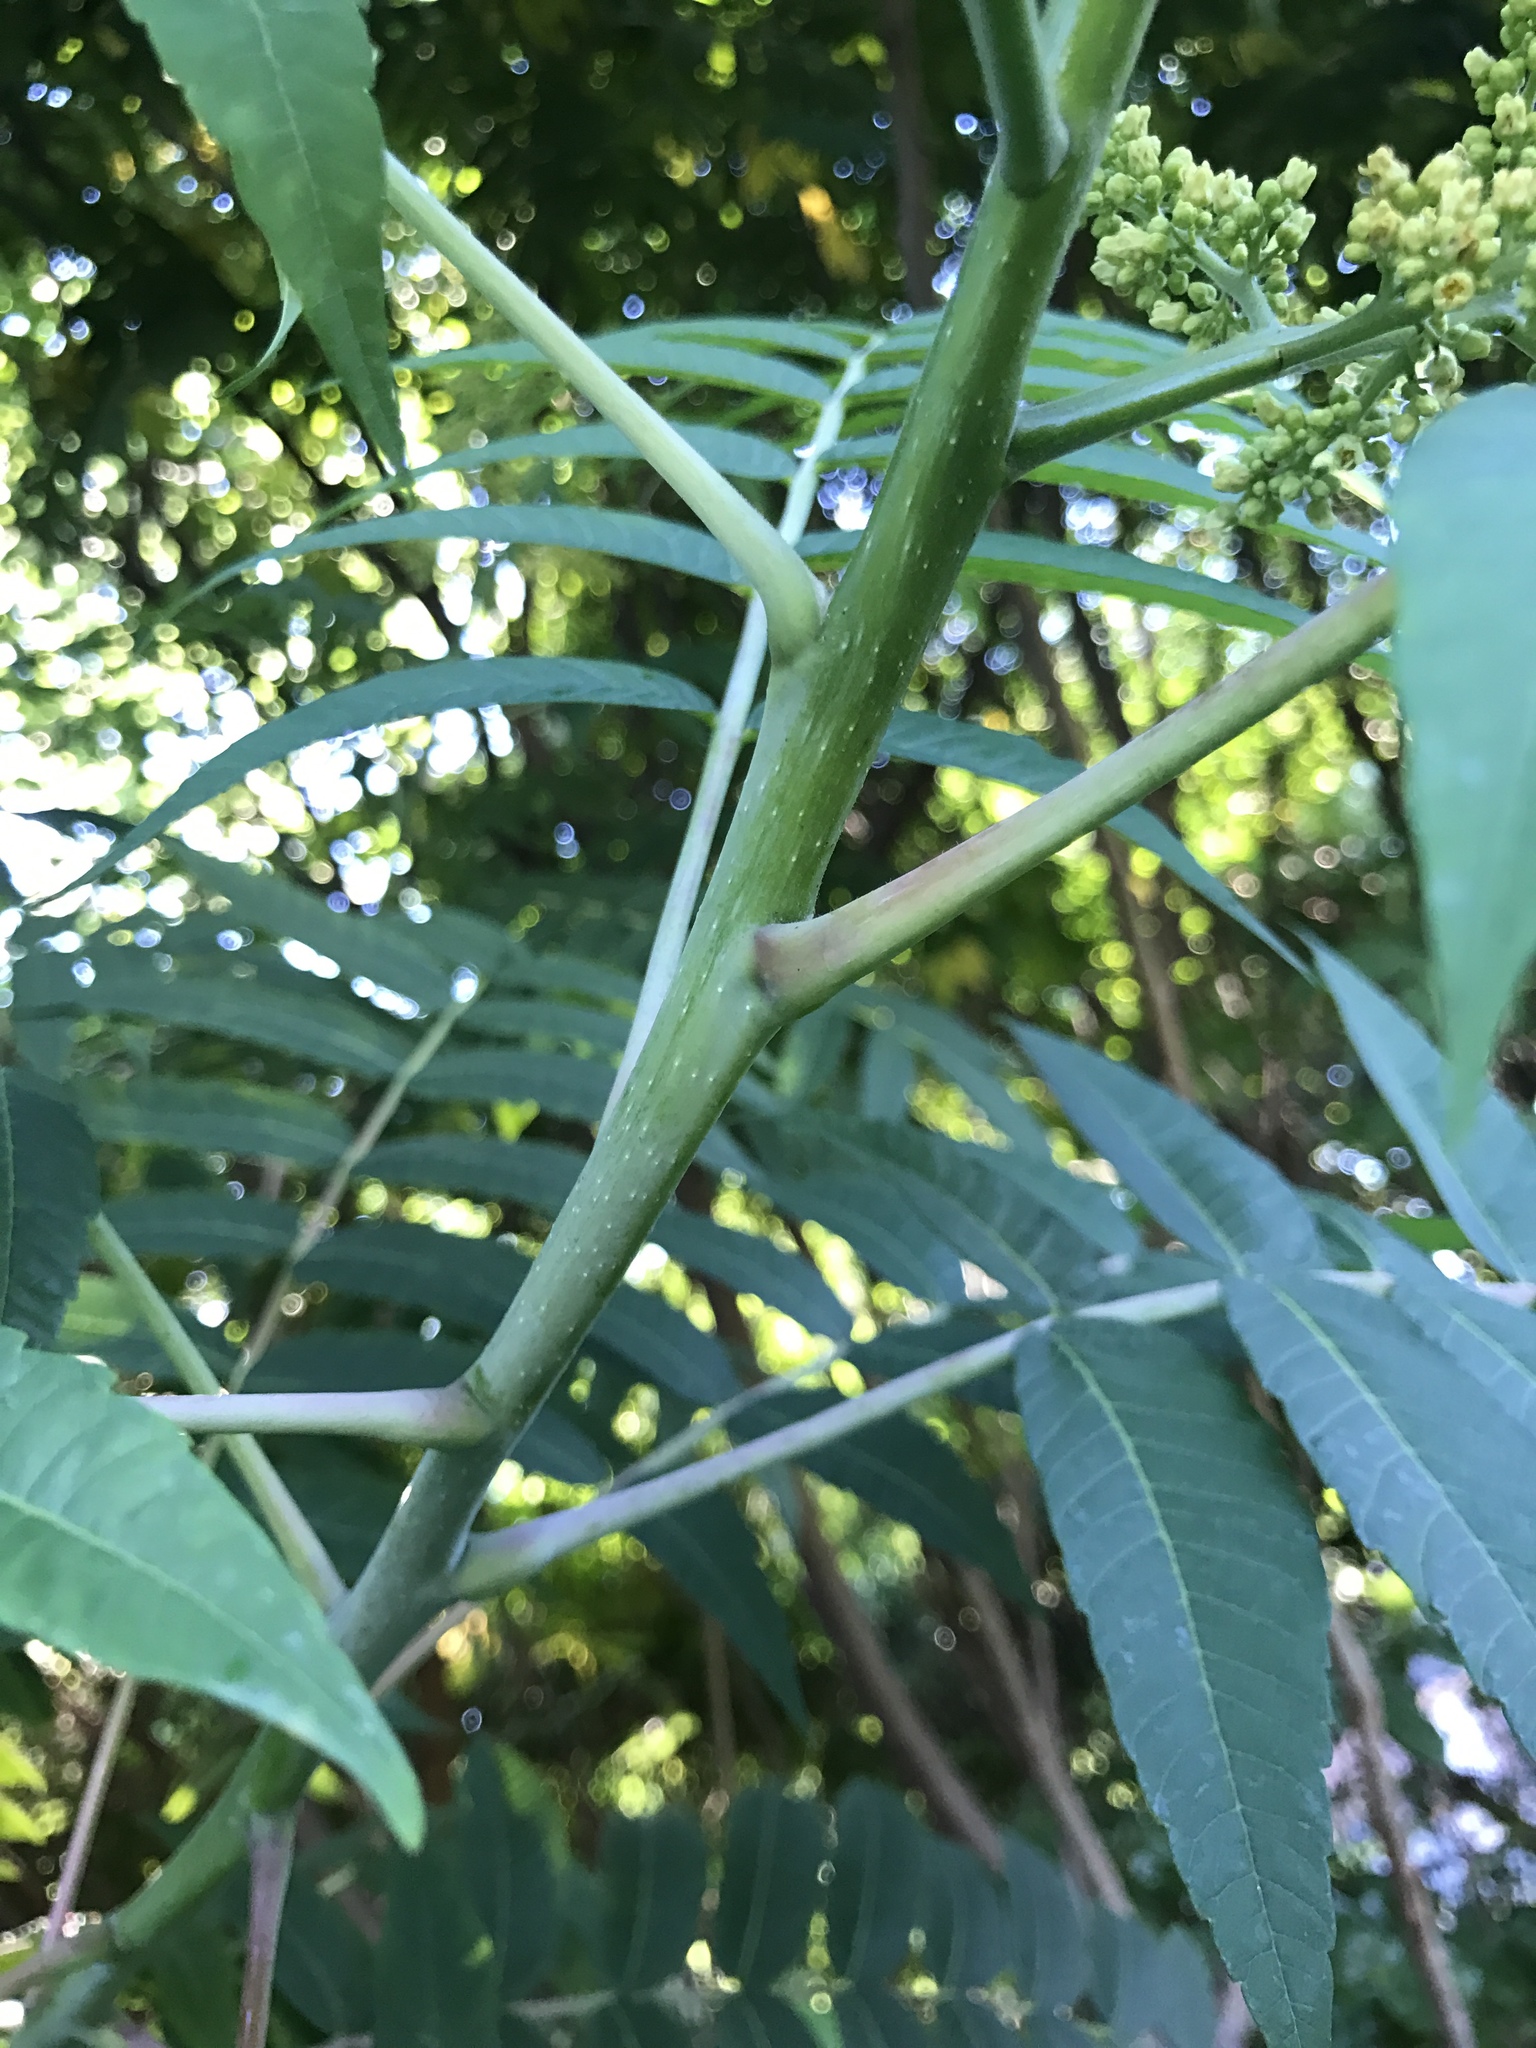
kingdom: Plantae
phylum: Tracheophyta
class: Magnoliopsida
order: Sapindales
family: Anacardiaceae
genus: Rhus
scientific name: Rhus glabra
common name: Scarlet sumac
